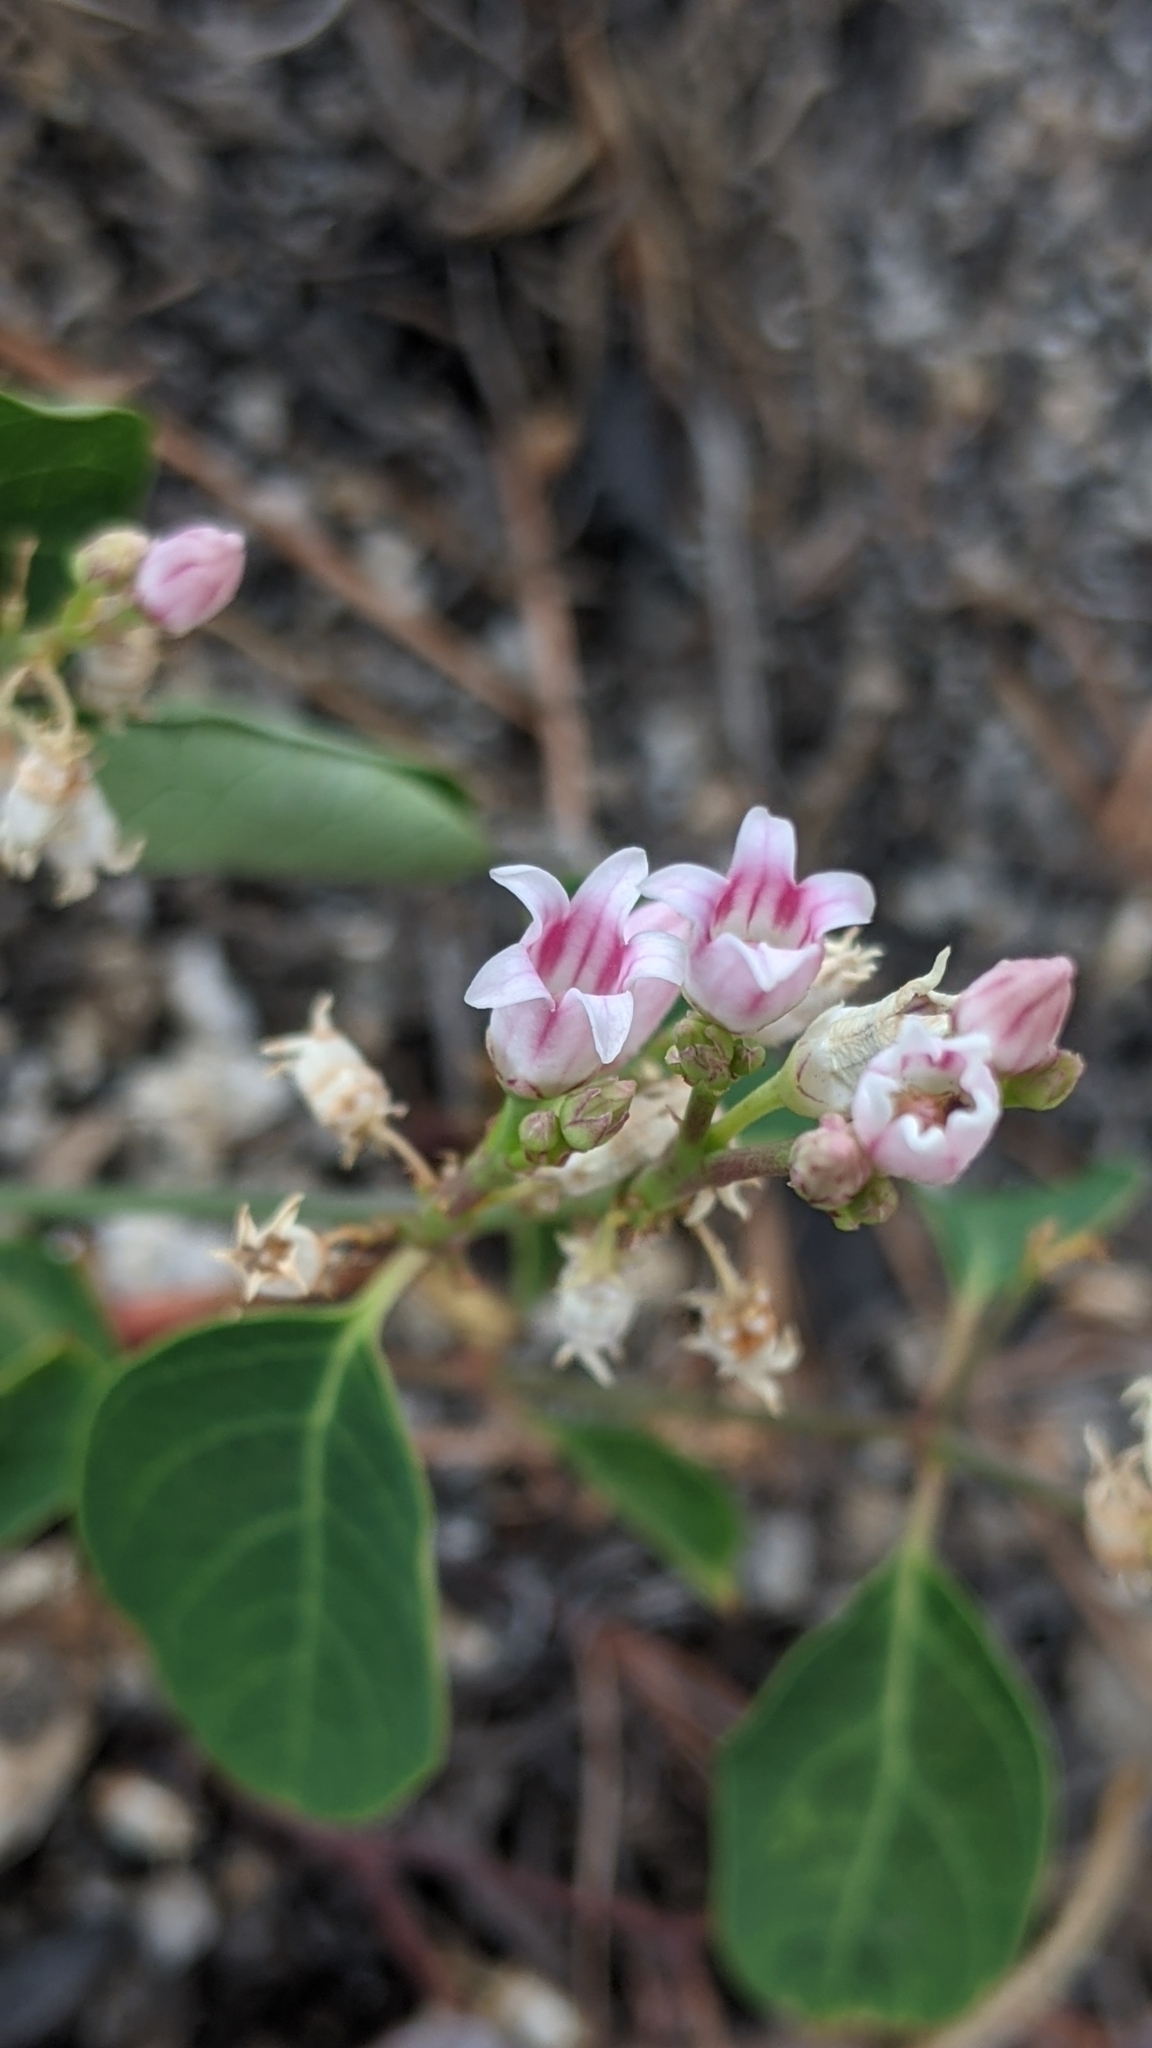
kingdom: Plantae
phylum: Tracheophyta
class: Magnoliopsida
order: Gentianales
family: Apocynaceae
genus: Apocynum
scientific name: Apocynum androsaemifolium
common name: Spreading dogbane
